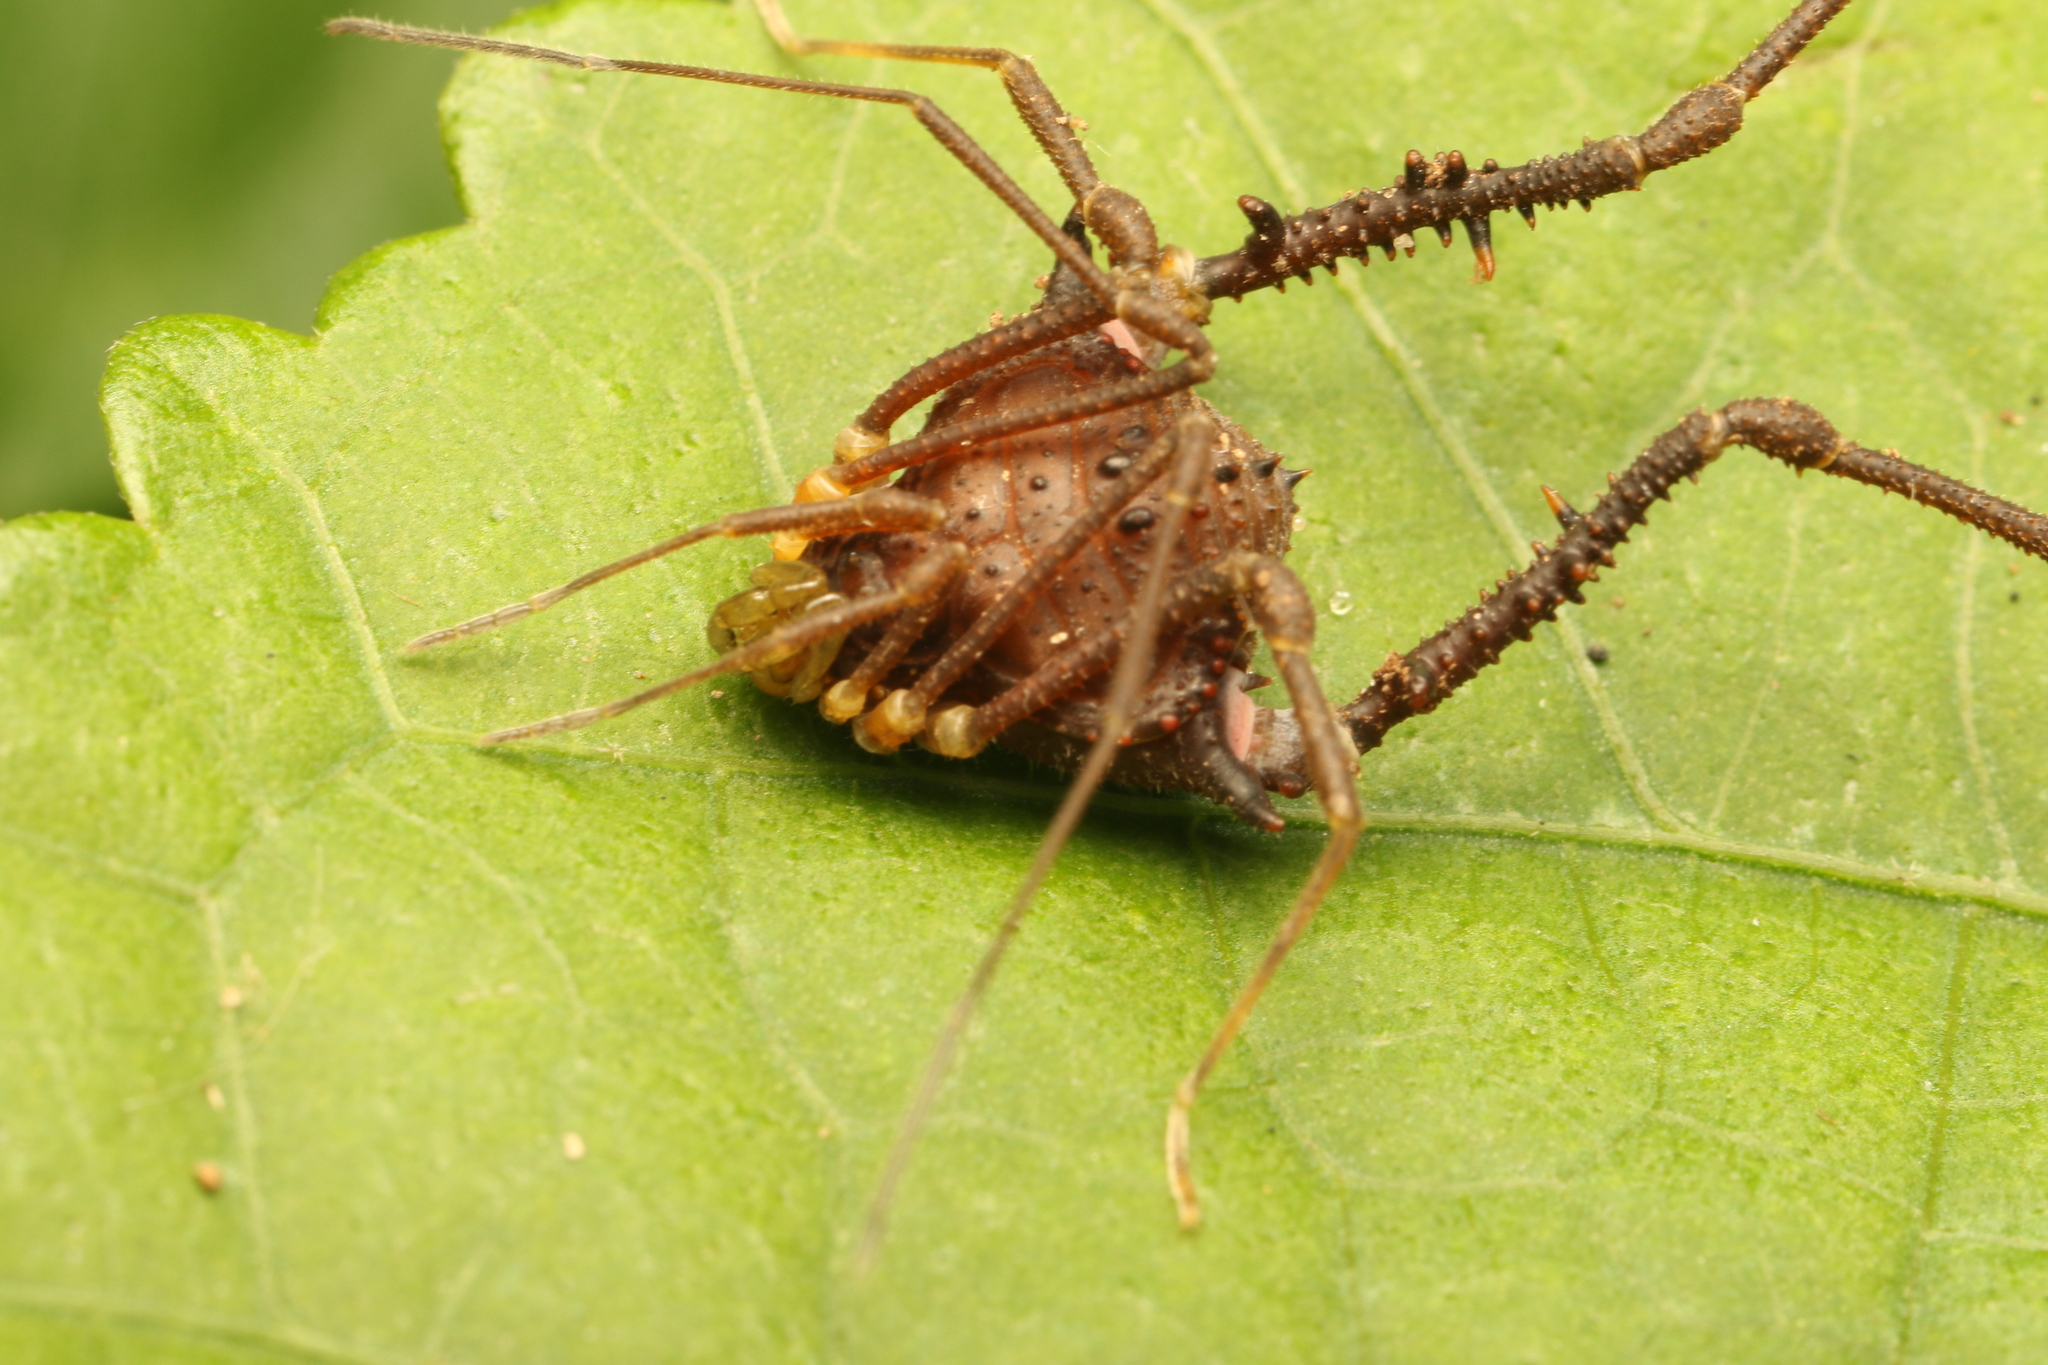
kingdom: Animalia
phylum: Arthropoda
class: Arachnida
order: Opiliones
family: Gonyleptidae
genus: Mischonyx
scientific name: Mischonyx squalidus
